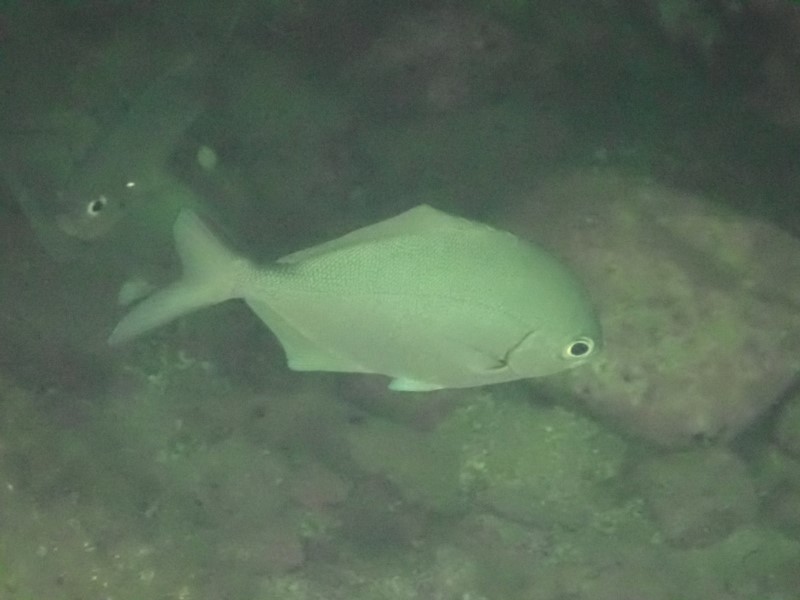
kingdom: Animalia
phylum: Chordata
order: Perciformes
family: Kyphosidae
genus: Scorpis
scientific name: Scorpis lineolata
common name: Sweep
